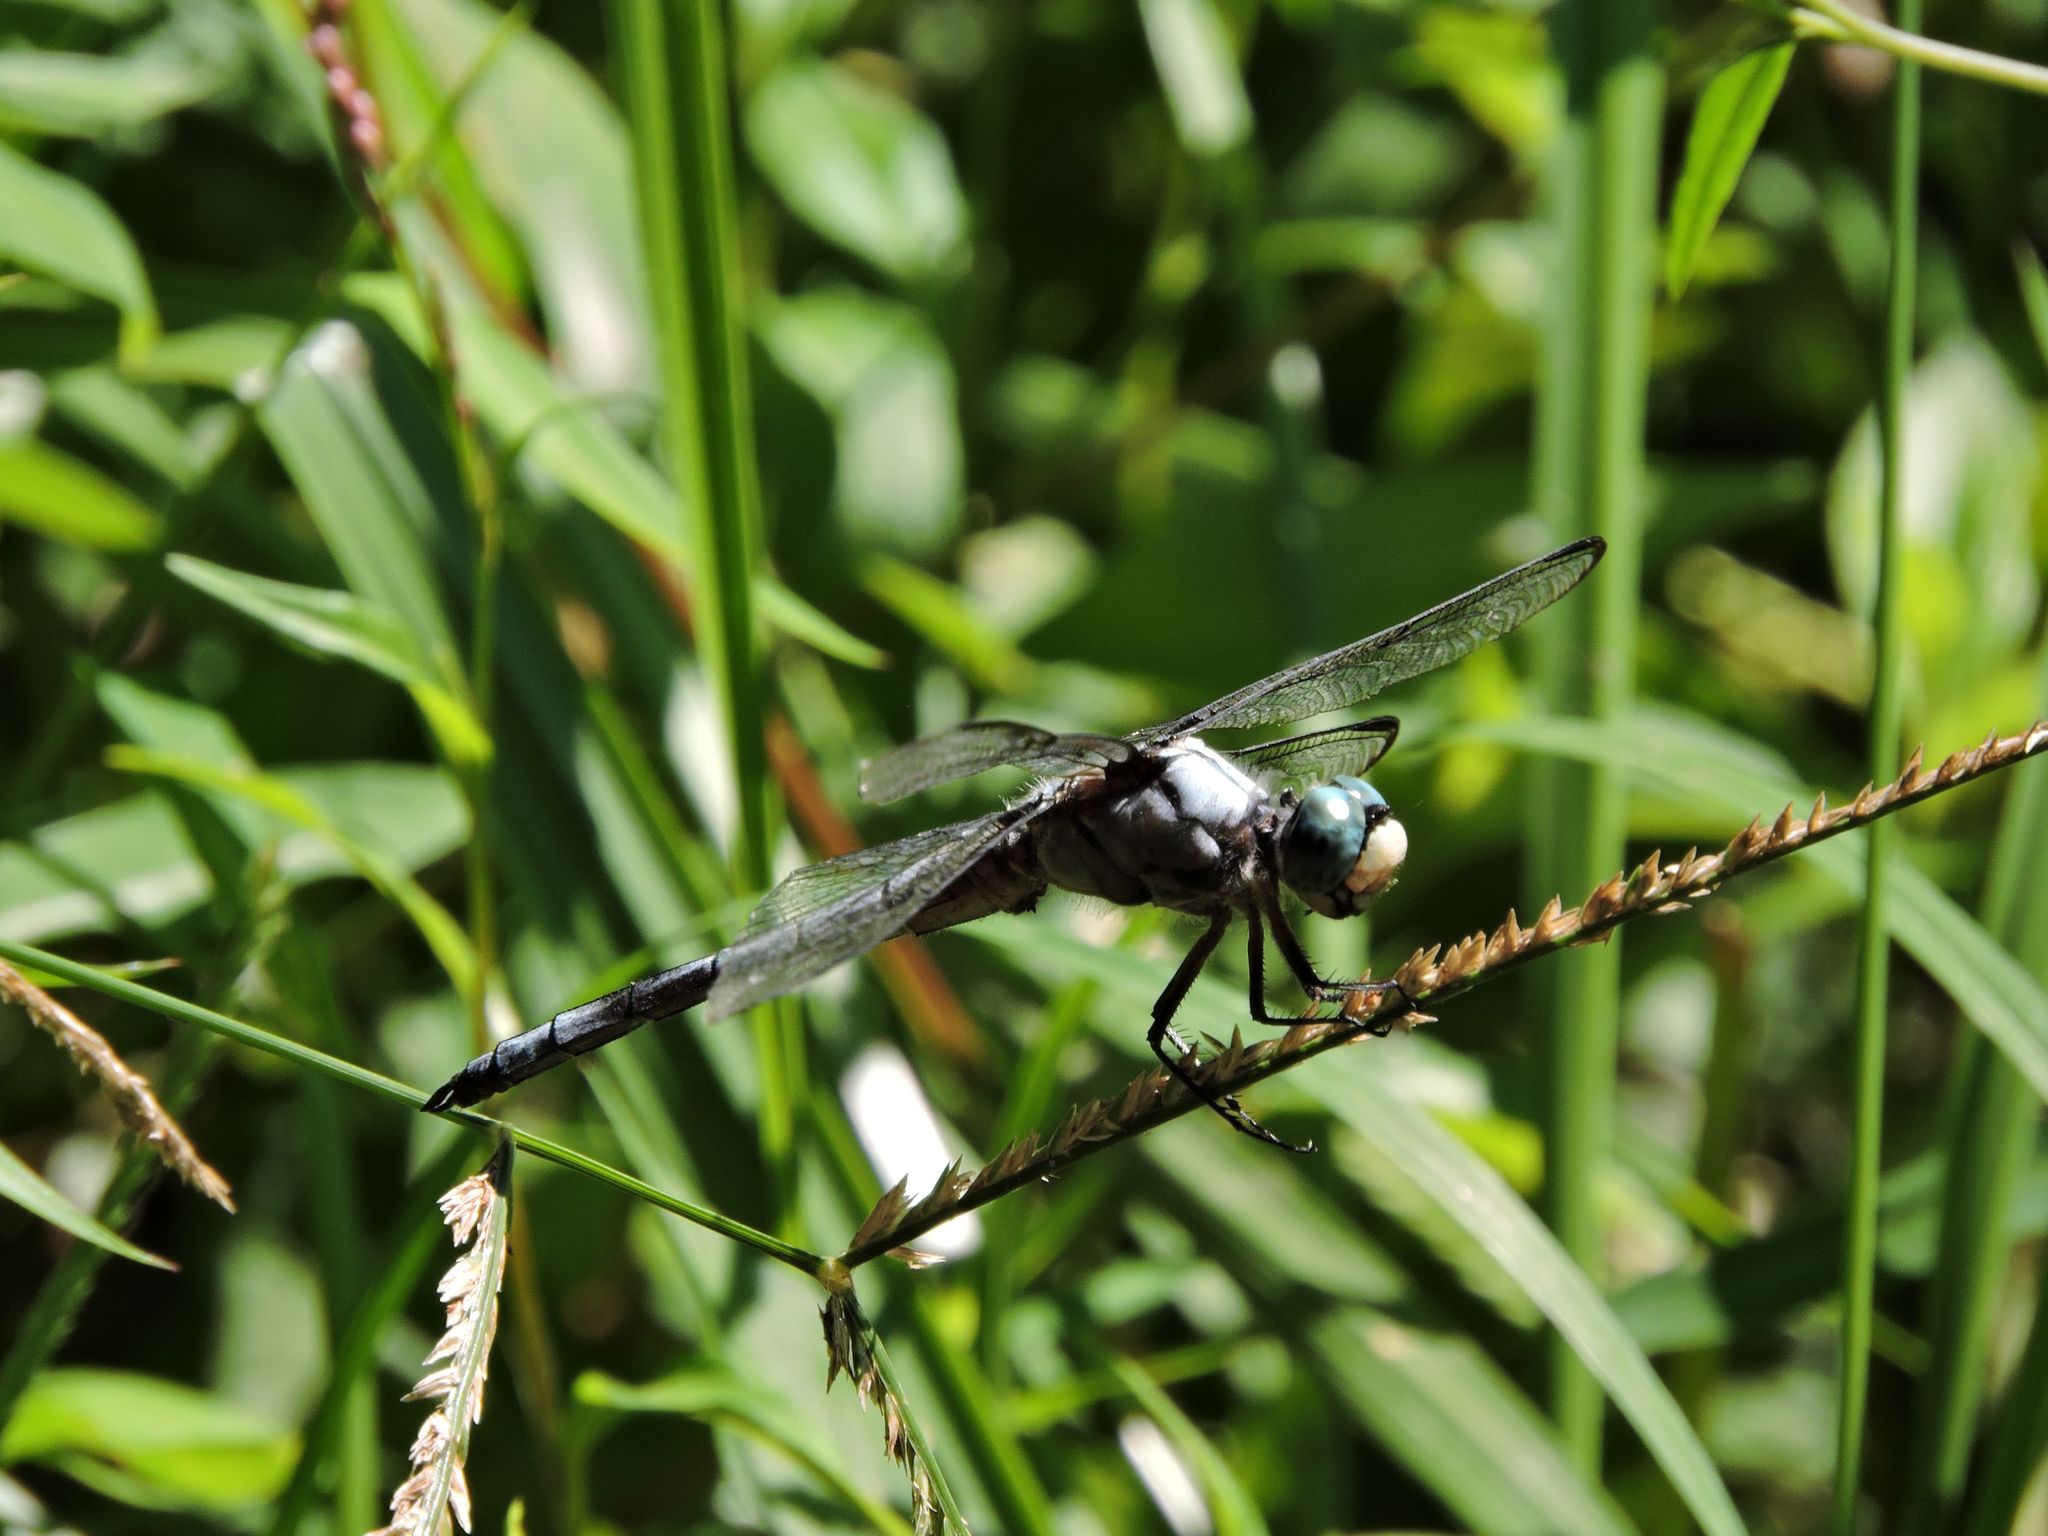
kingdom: Animalia
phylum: Arthropoda
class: Insecta
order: Odonata
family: Libellulidae
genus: Libellula
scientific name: Libellula vibrans
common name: Great blue skimmer
